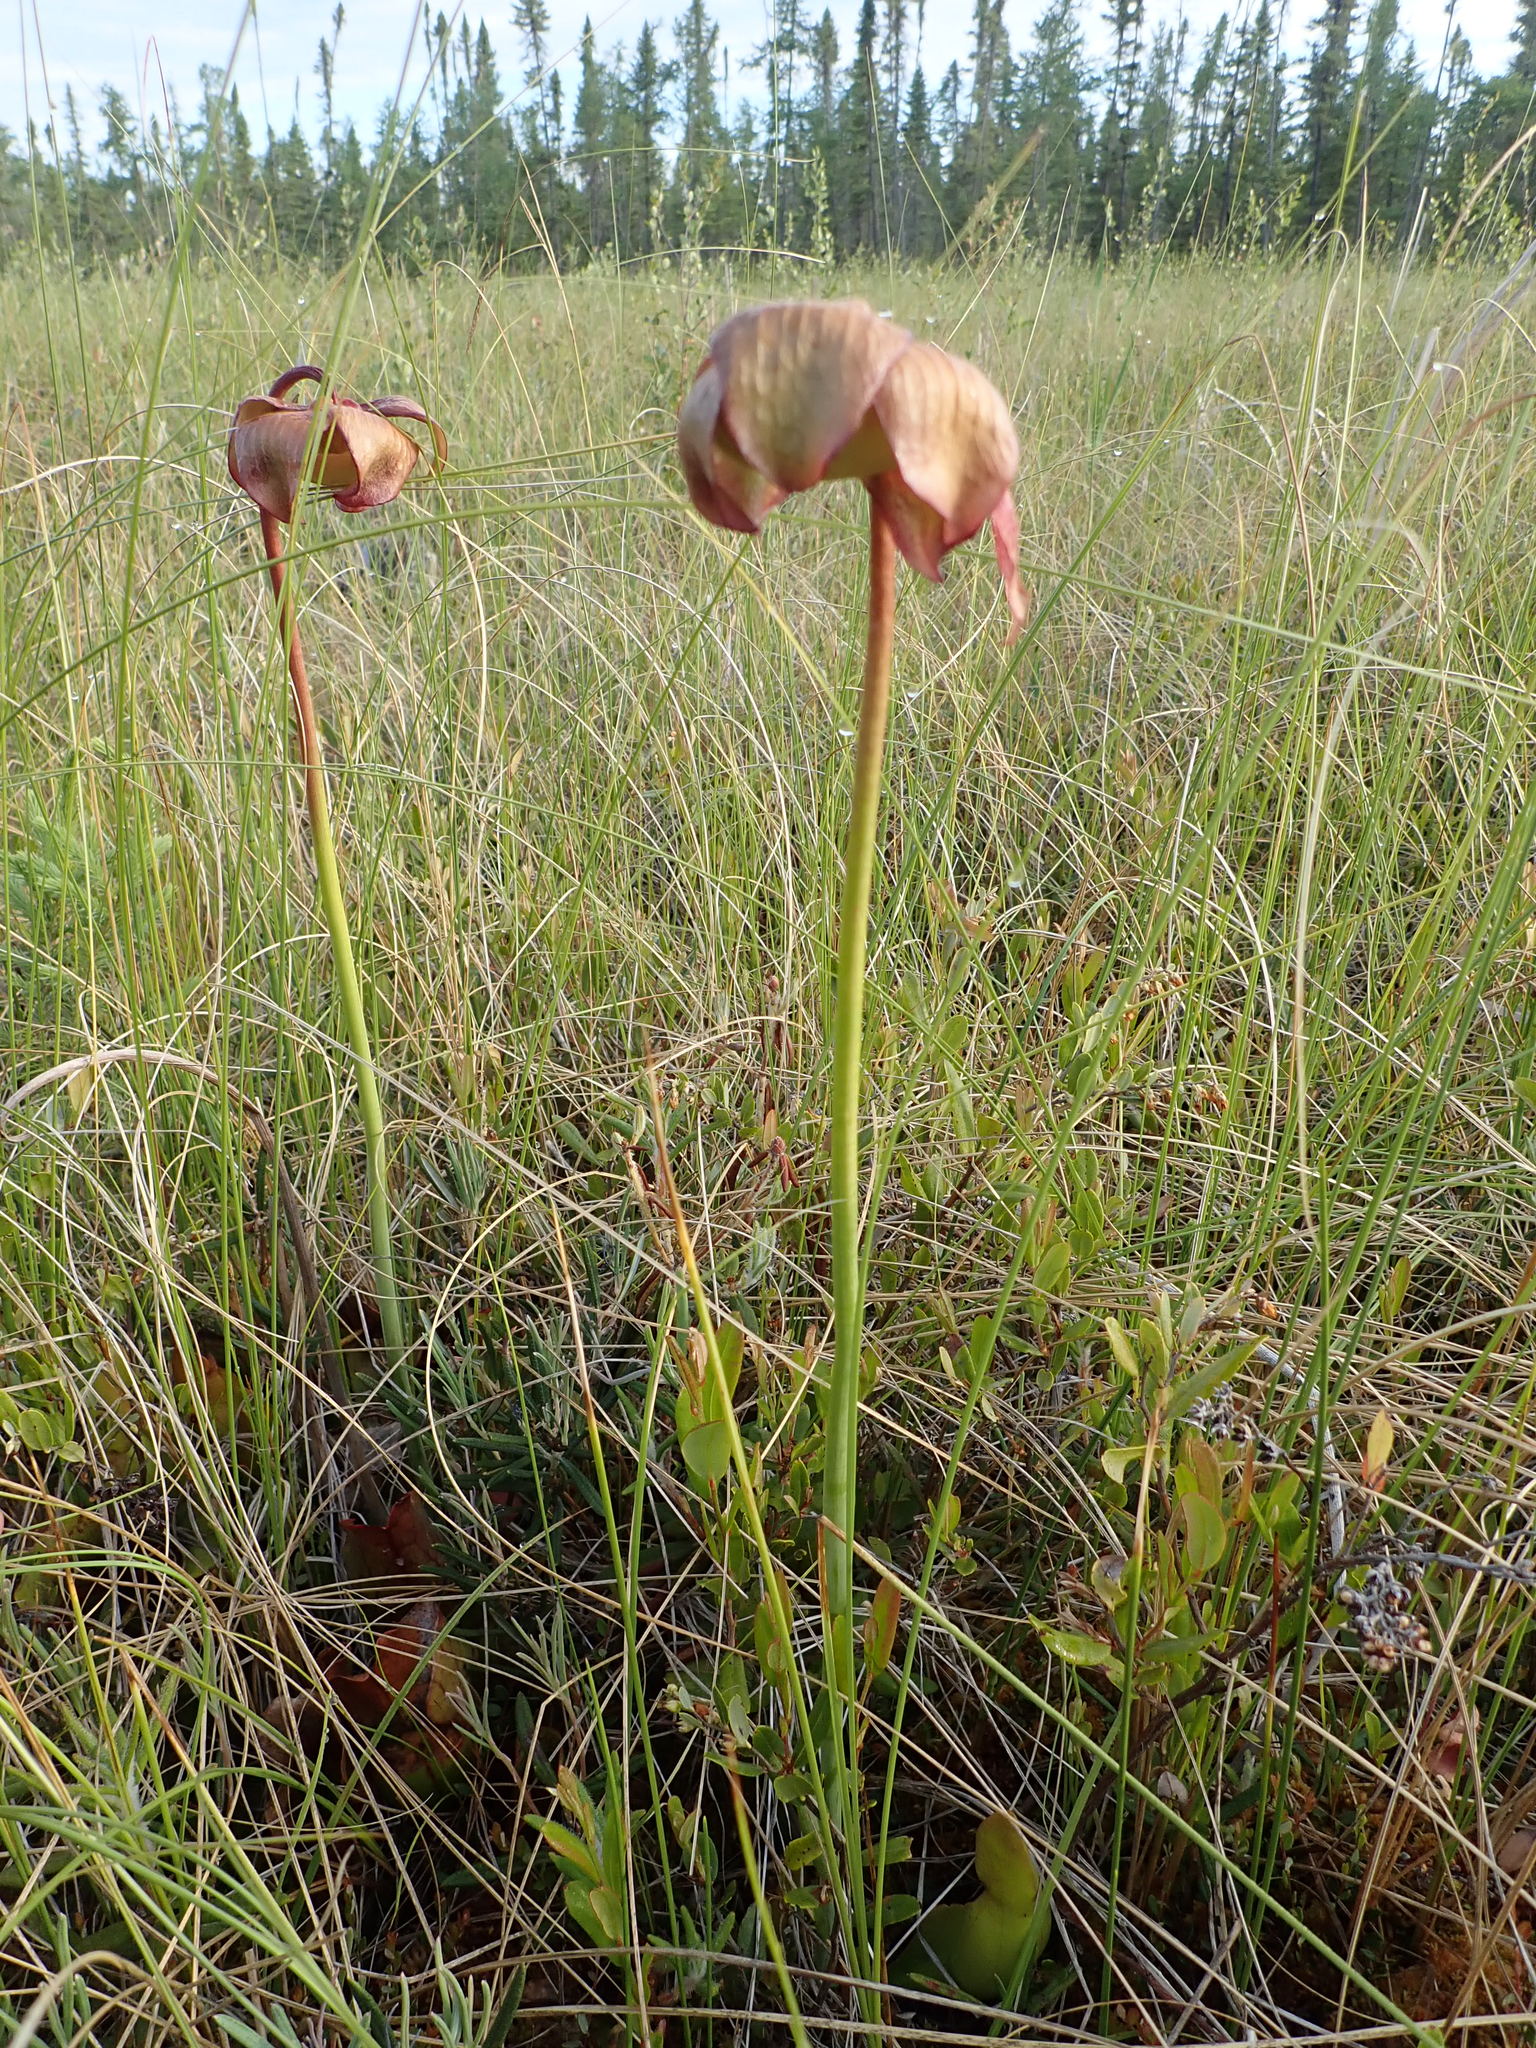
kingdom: Plantae
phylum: Tracheophyta
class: Magnoliopsida
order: Ericales
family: Sarraceniaceae
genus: Sarracenia
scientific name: Sarracenia purpurea
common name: Pitcherplant
